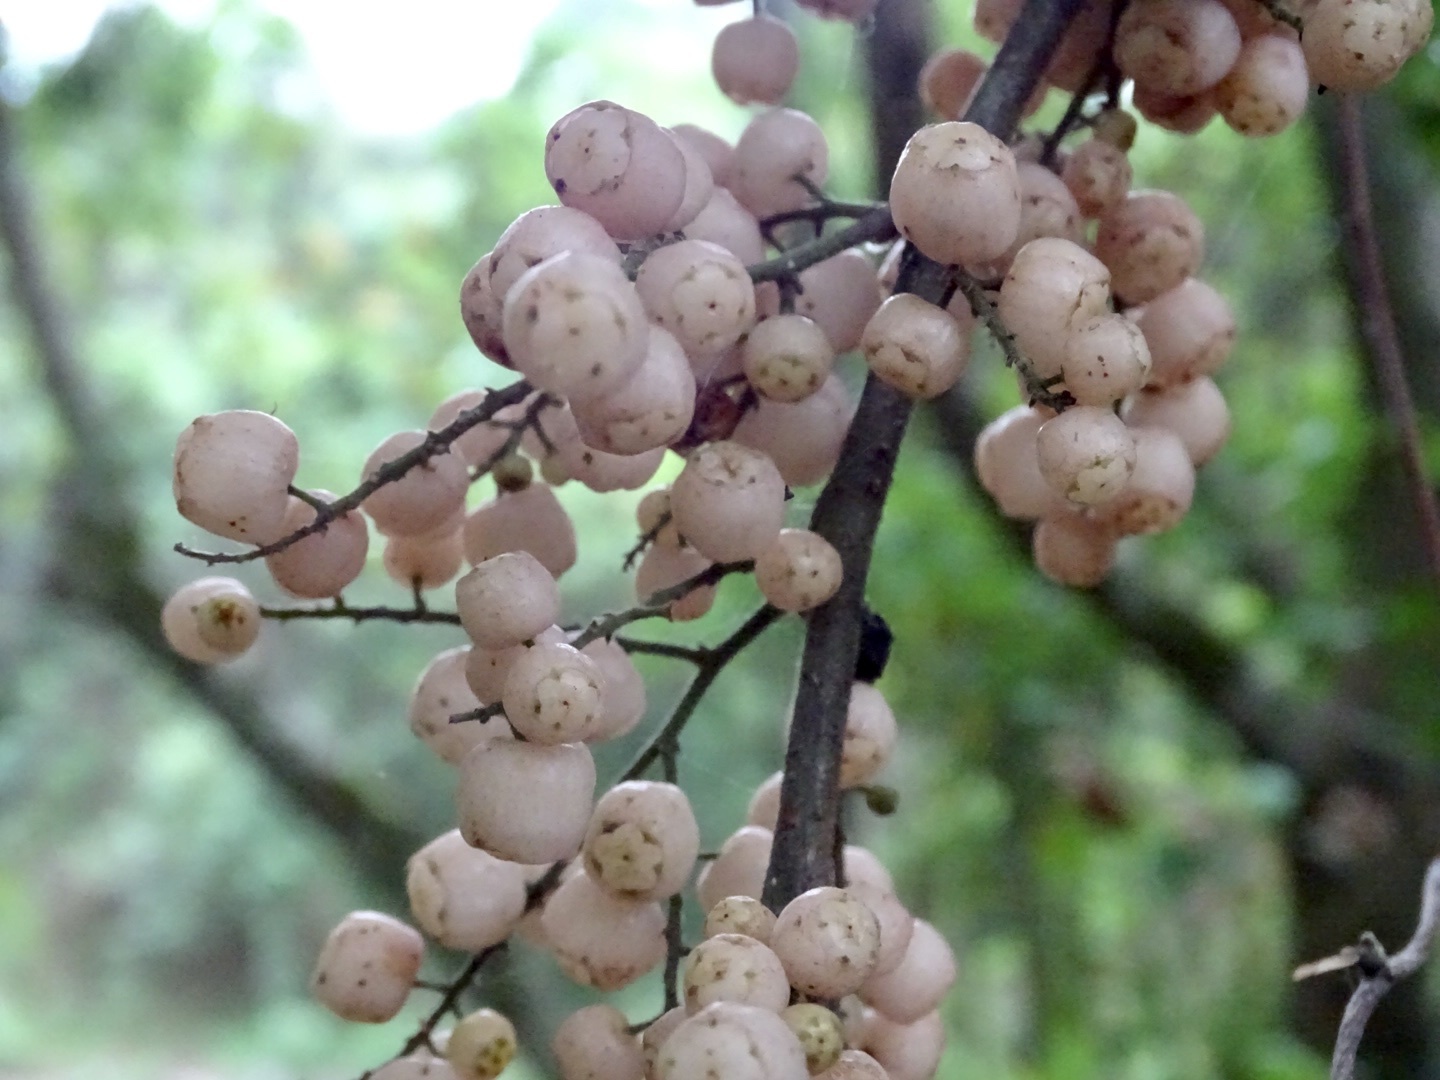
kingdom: Plantae
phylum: Tracheophyta
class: Magnoliopsida
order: Ericales
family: Primulaceae
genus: Maesa
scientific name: Maesa perlaria
